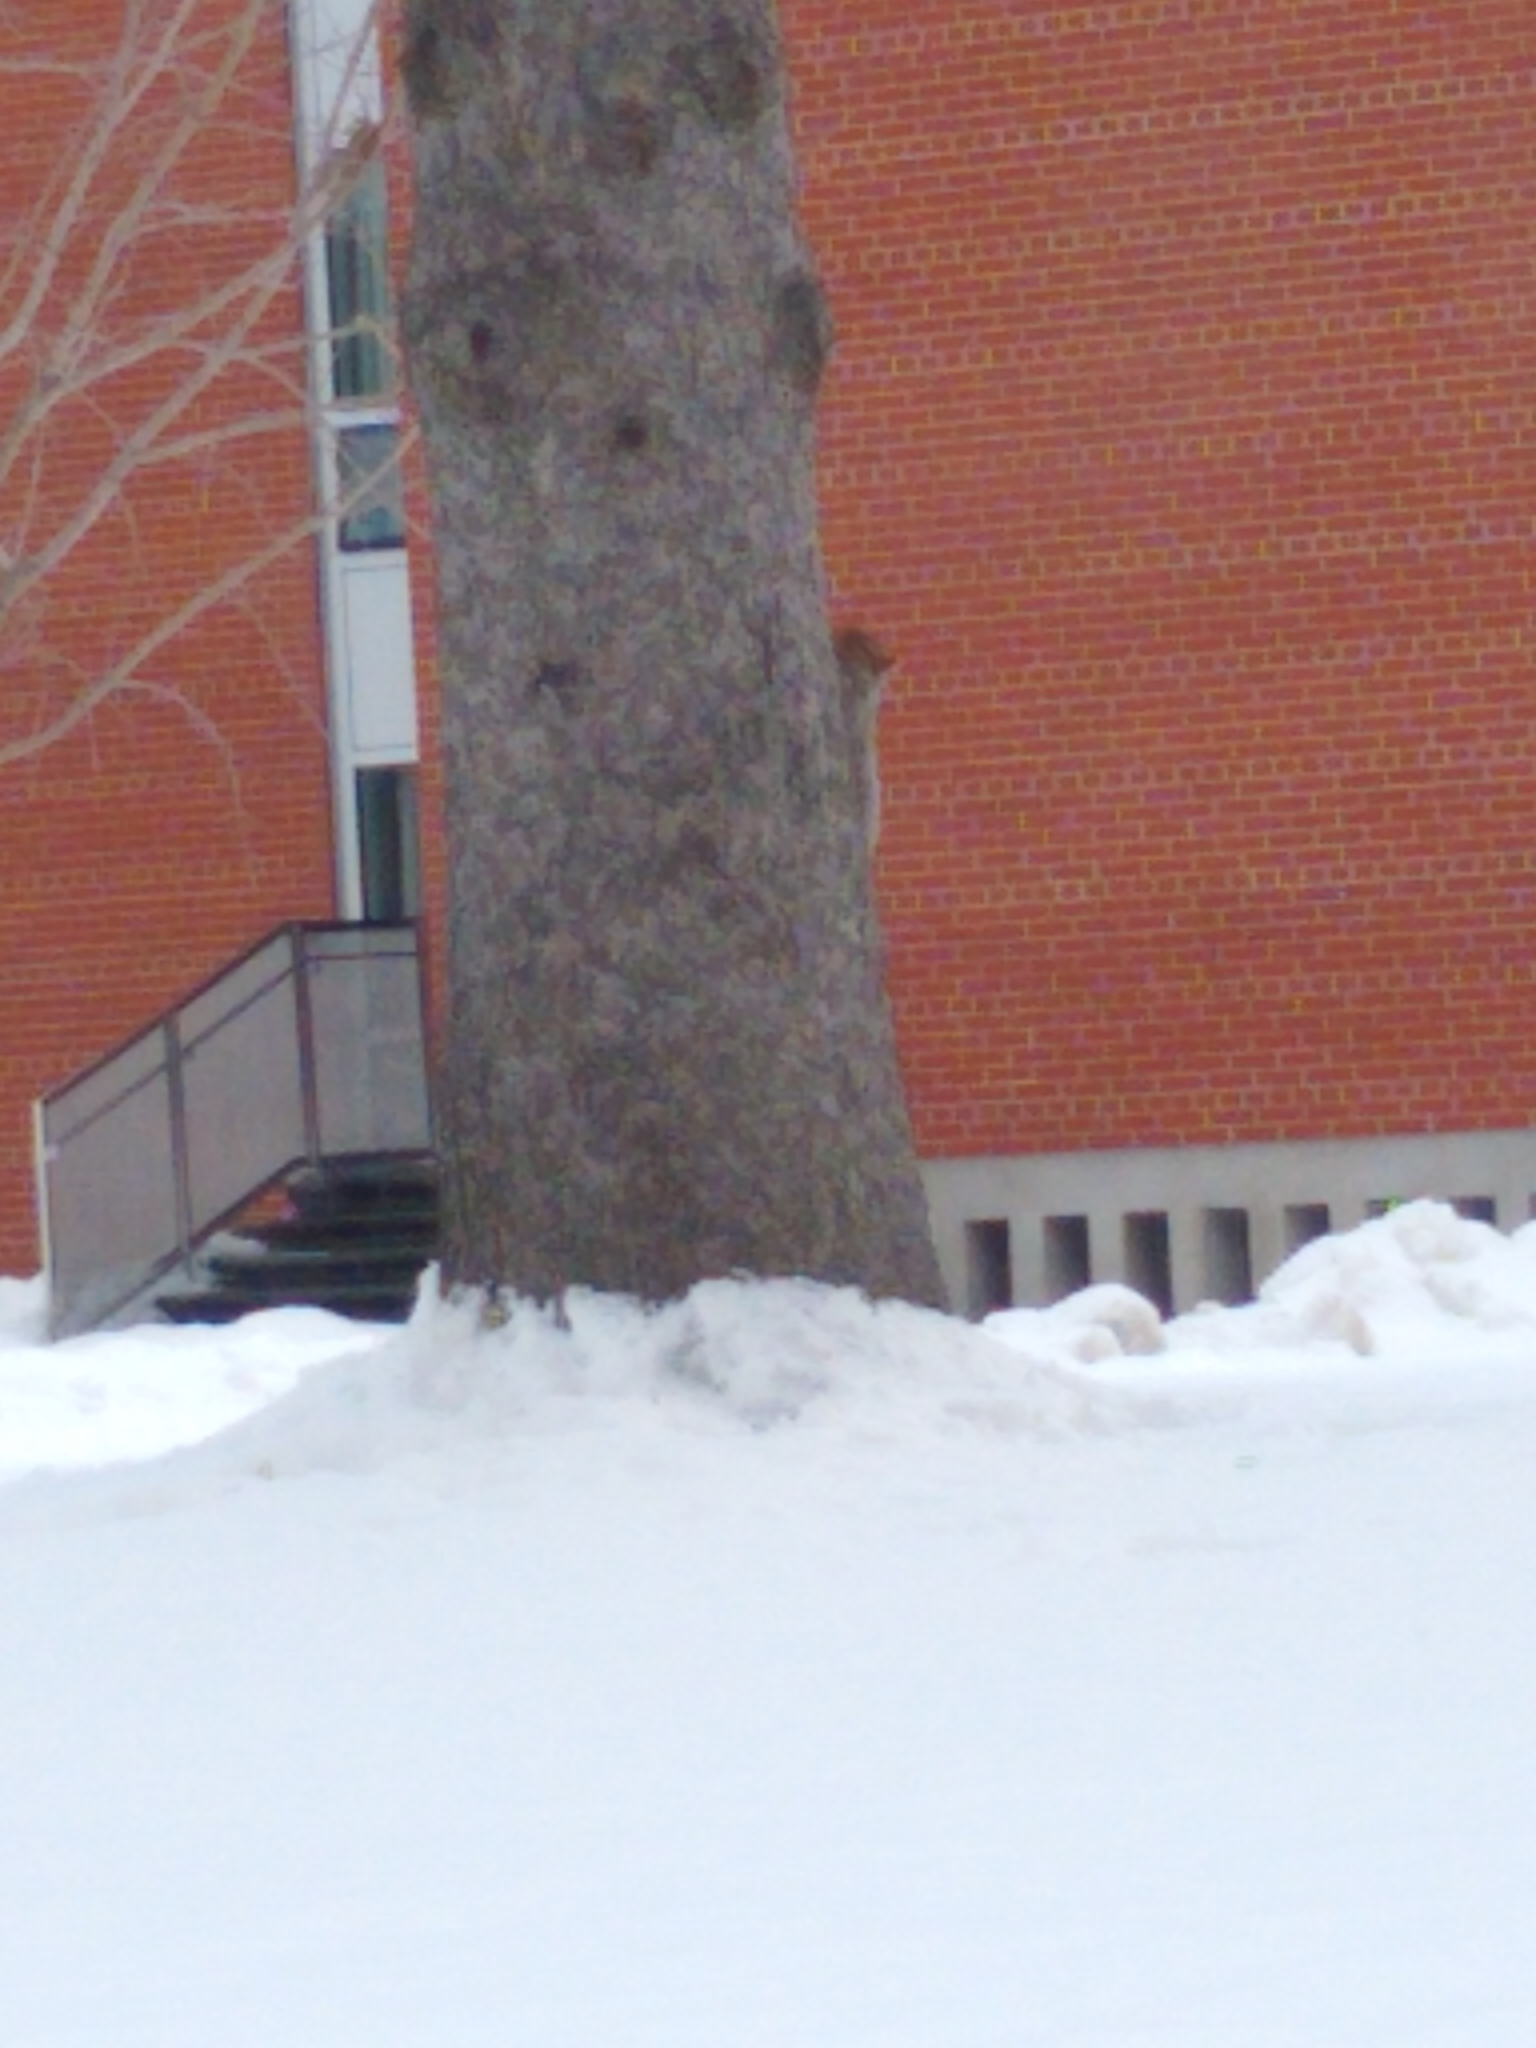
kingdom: Animalia
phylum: Chordata
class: Mammalia
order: Rodentia
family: Sciuridae
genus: Sciurus
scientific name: Sciurus carolinensis
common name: Eastern gray squirrel
